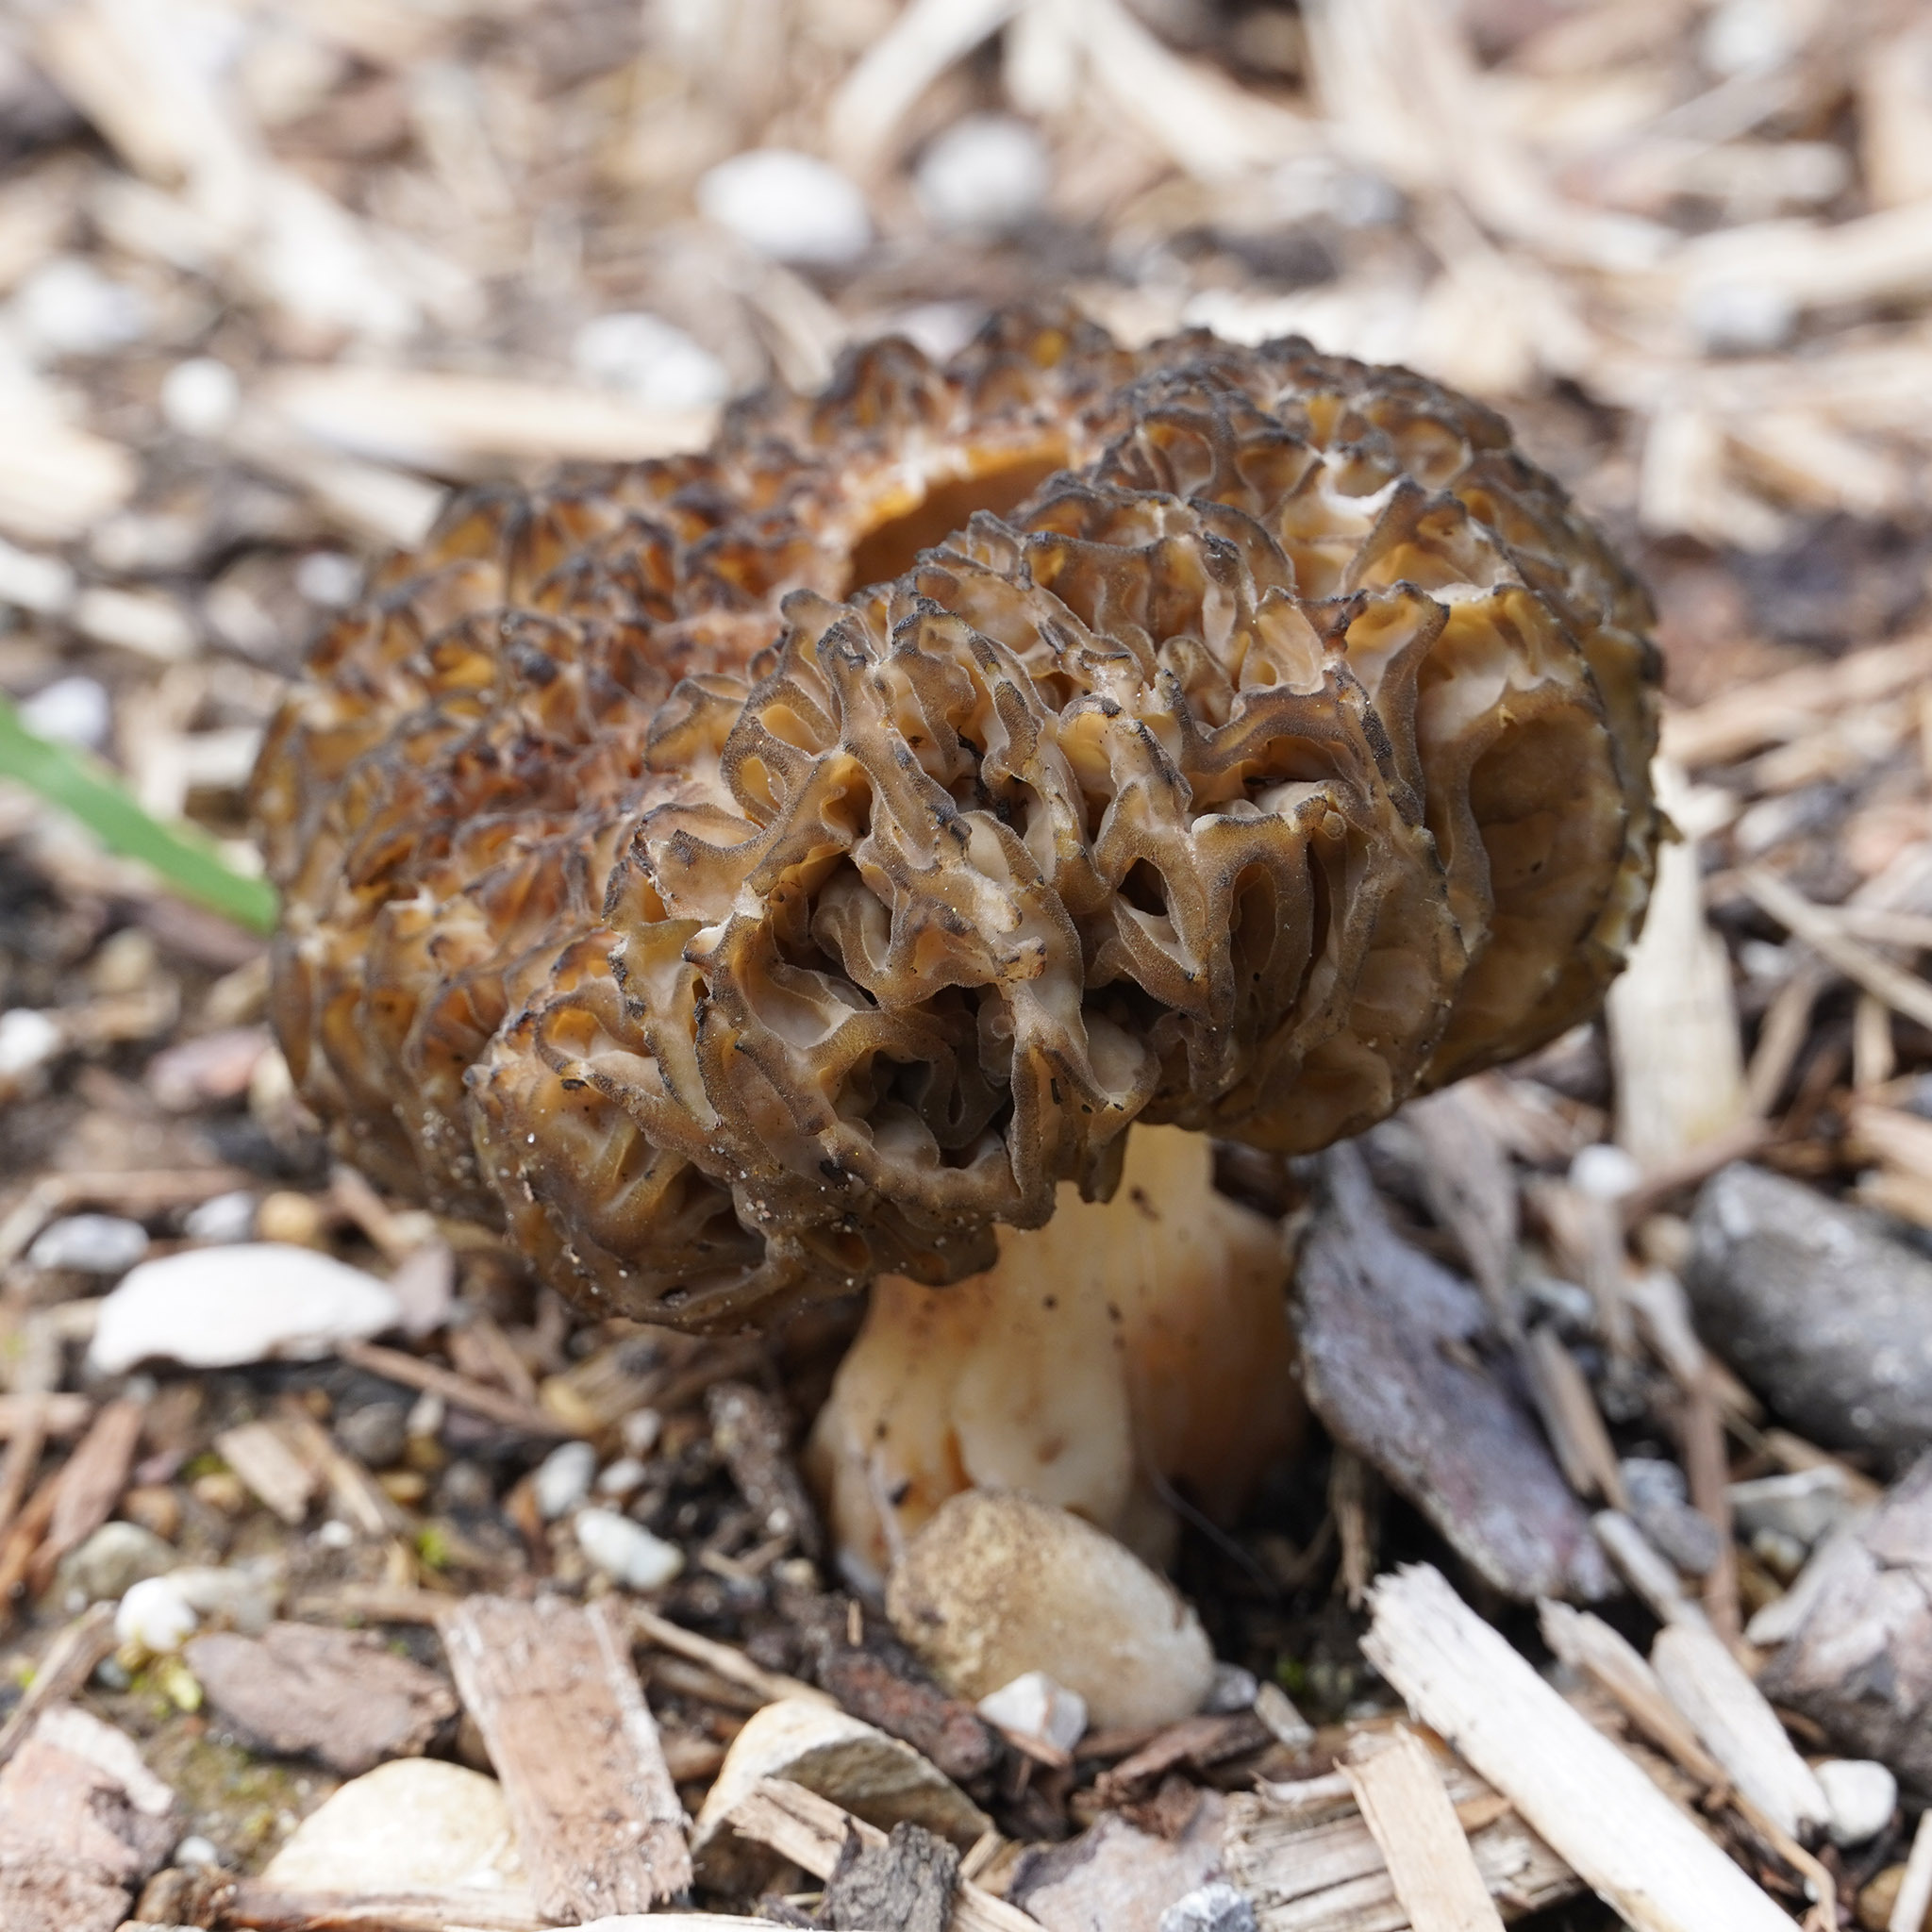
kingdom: Fungi
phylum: Ascomycota
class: Pezizomycetes
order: Pezizales
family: Morchellaceae
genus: Morchella
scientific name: Morchella elata
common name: Black morel
